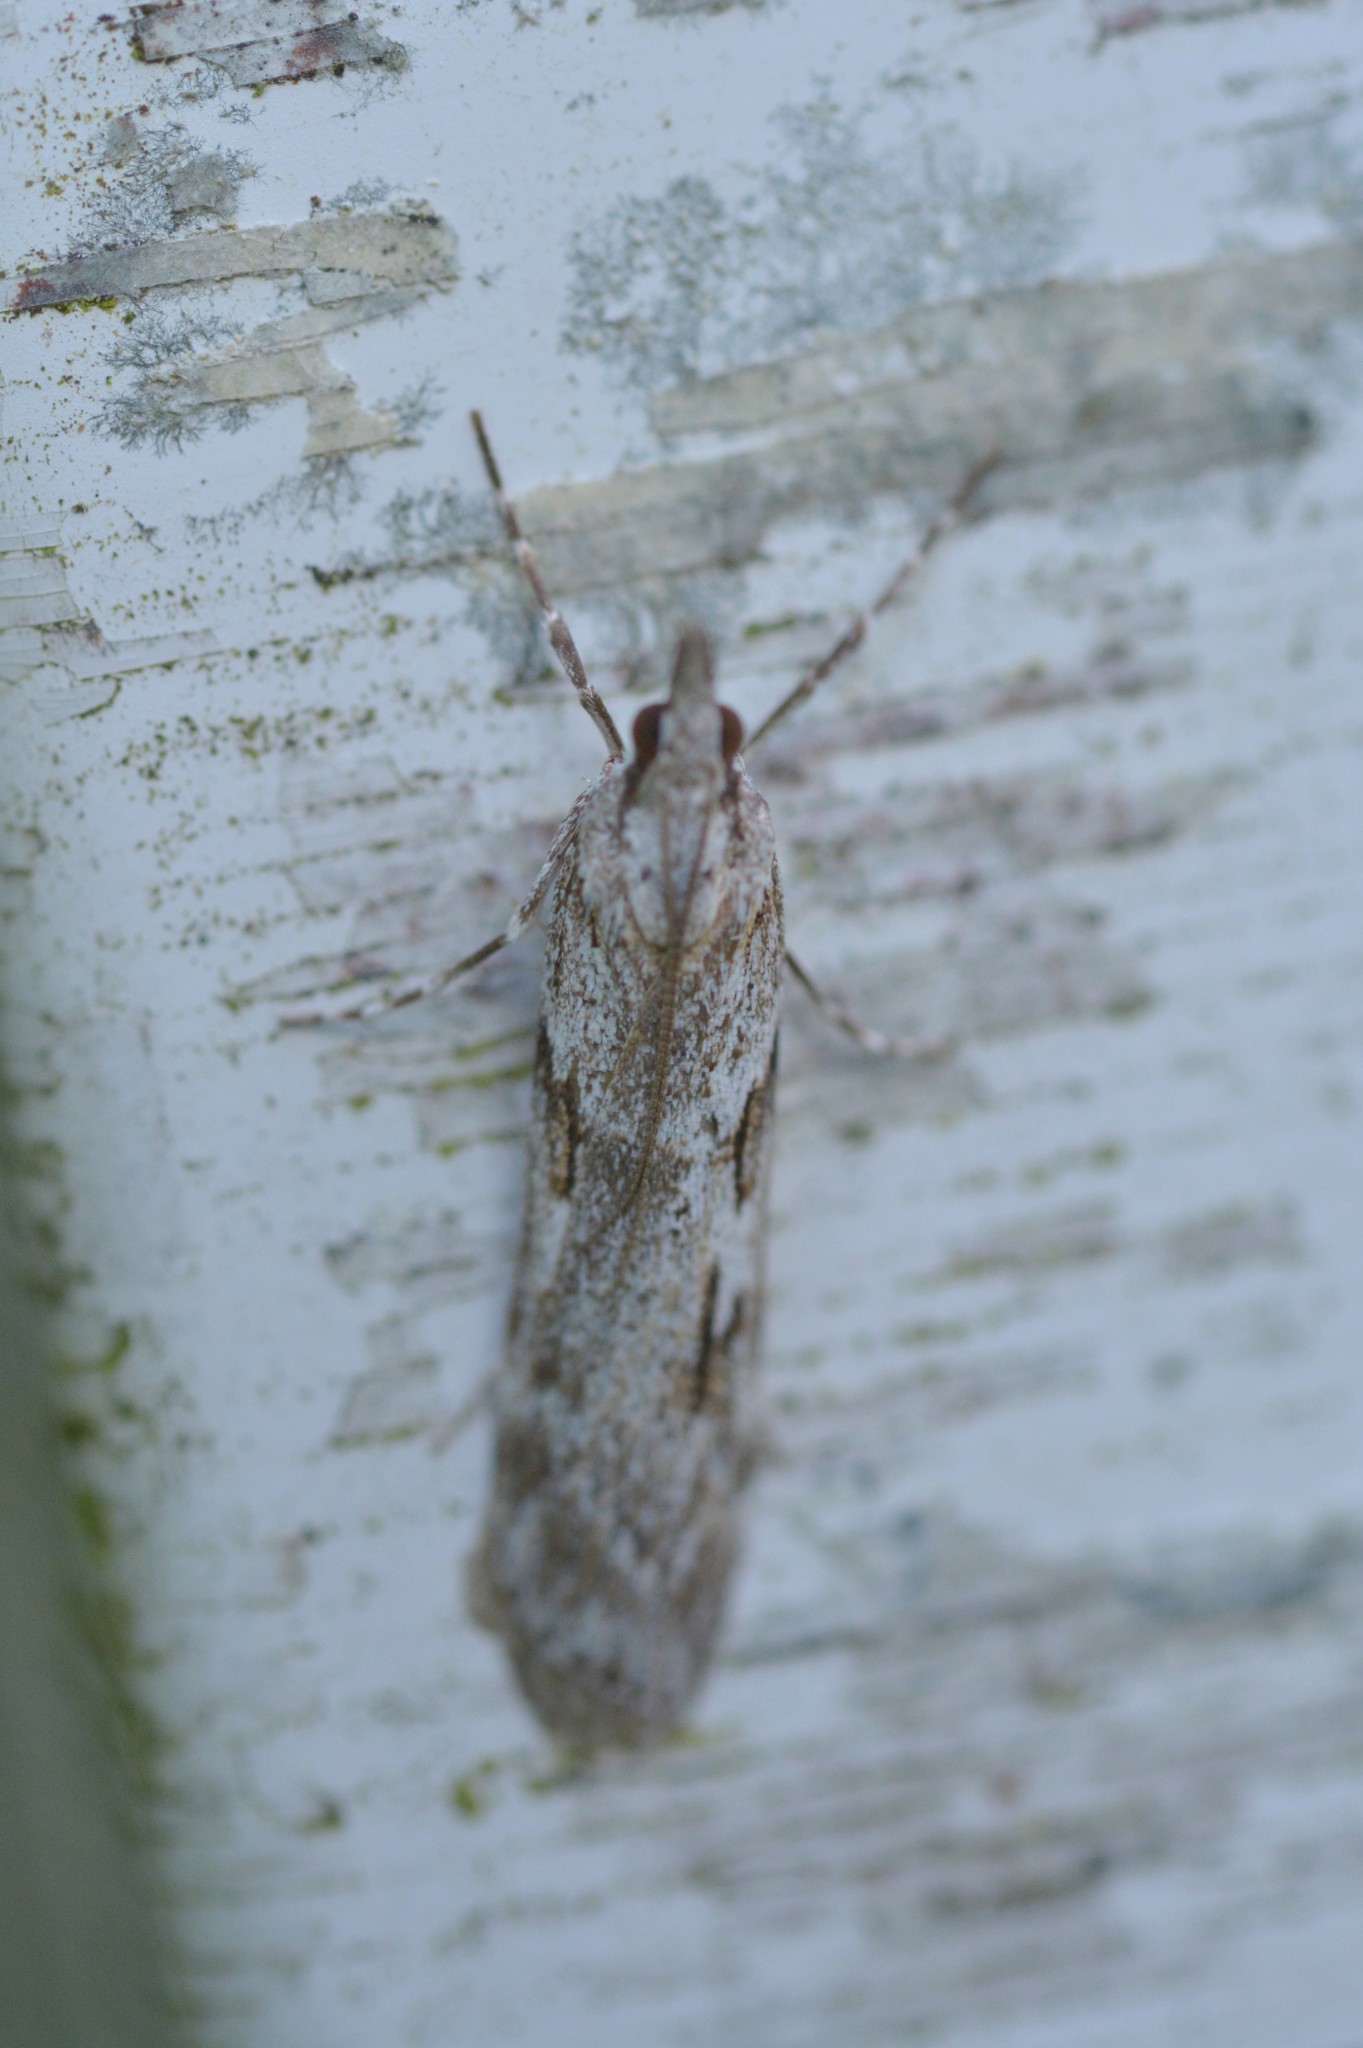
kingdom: Animalia
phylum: Arthropoda
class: Insecta
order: Lepidoptera
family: Crambidae
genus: Scoparia
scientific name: Scoparia halopis
